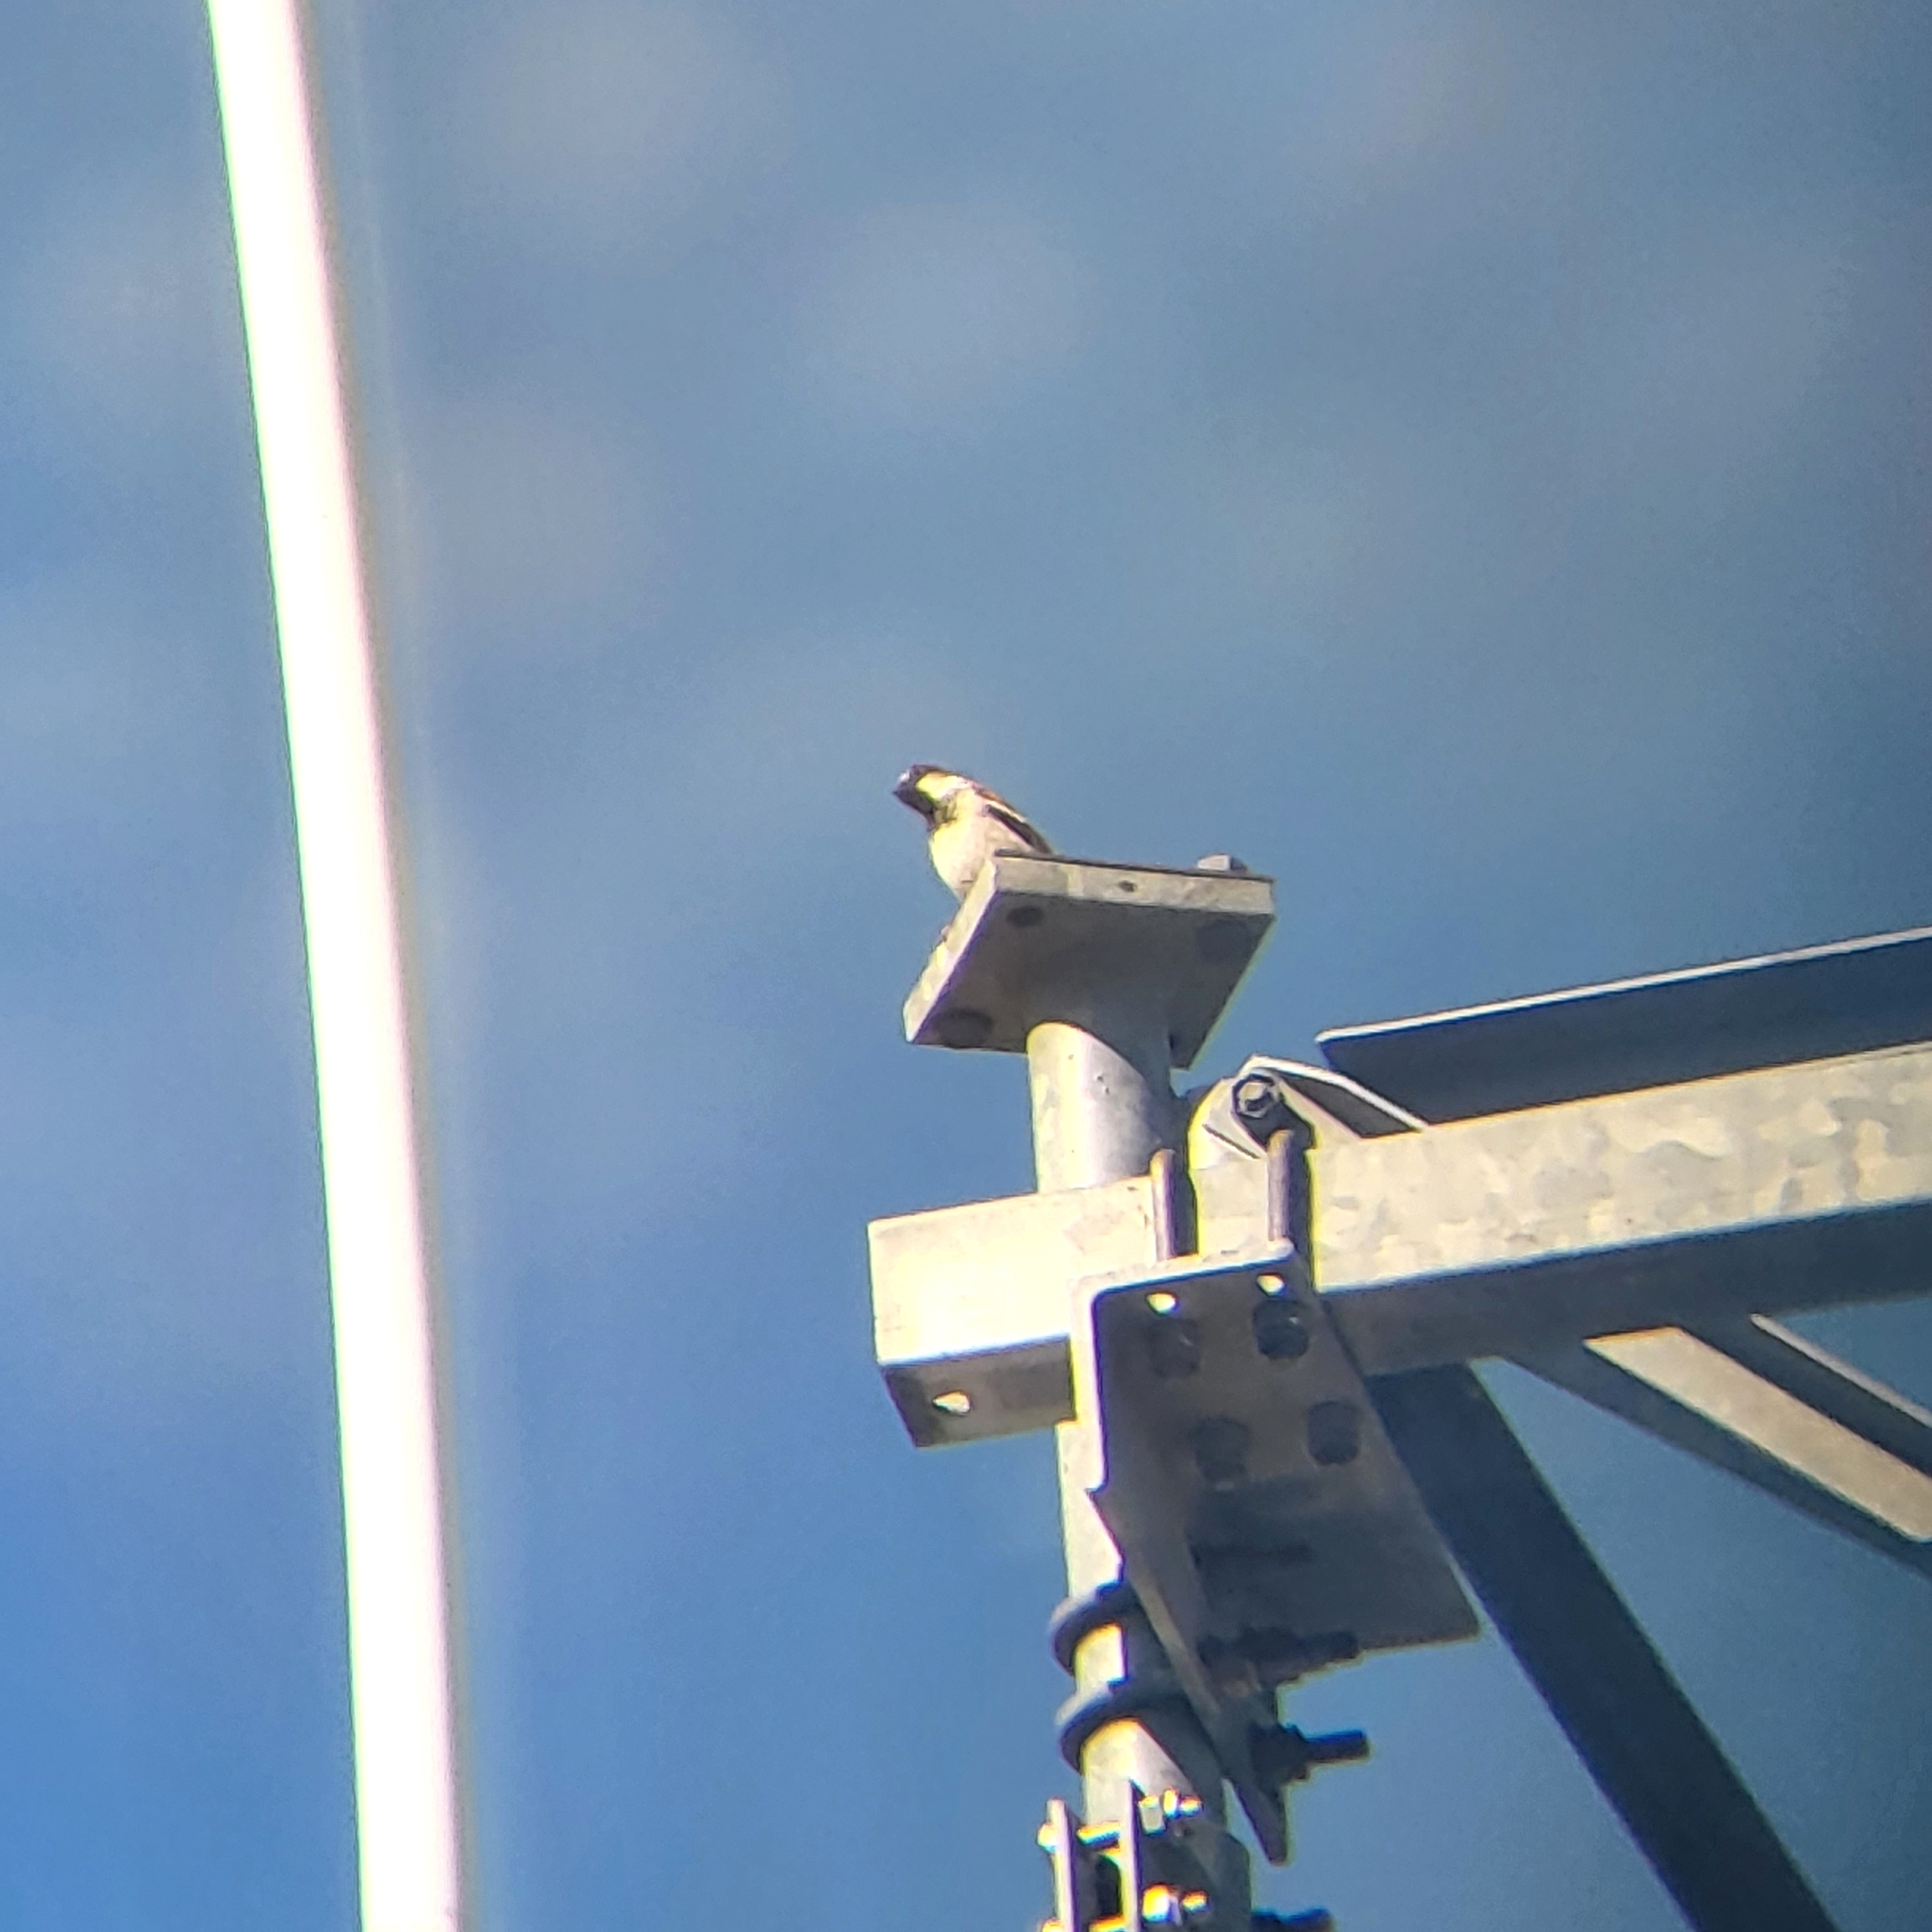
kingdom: Animalia
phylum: Chordata
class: Aves
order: Passeriformes
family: Passeridae
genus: Passer
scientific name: Passer domesticus
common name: House sparrow
